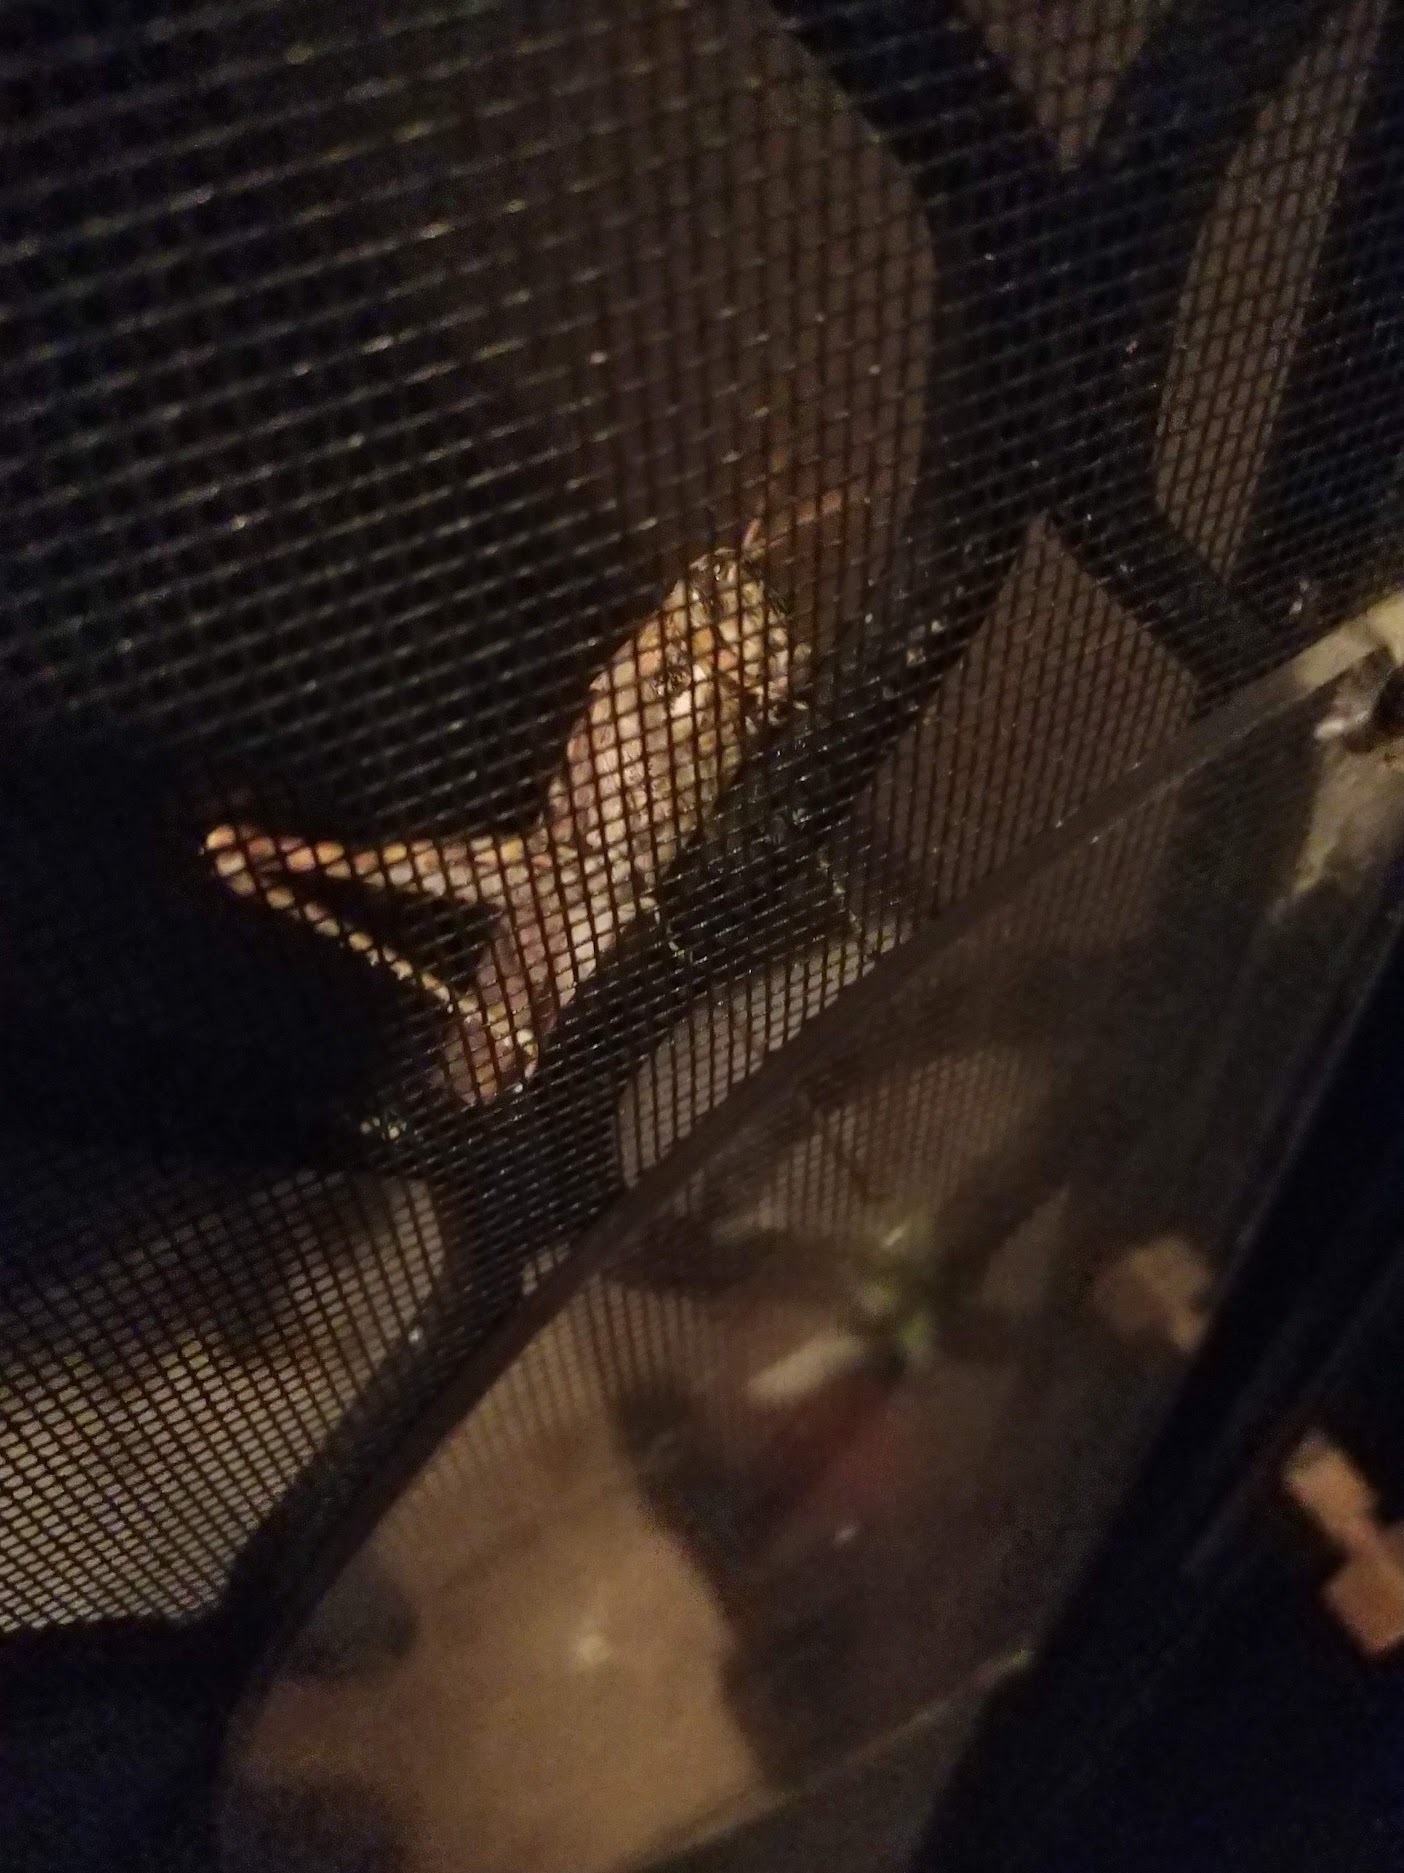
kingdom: Animalia
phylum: Arthropoda
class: Insecta
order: Orthoptera
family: Acrididae
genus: Schistocerca
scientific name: Schistocerca nitens
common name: Vagrant grasshopper
